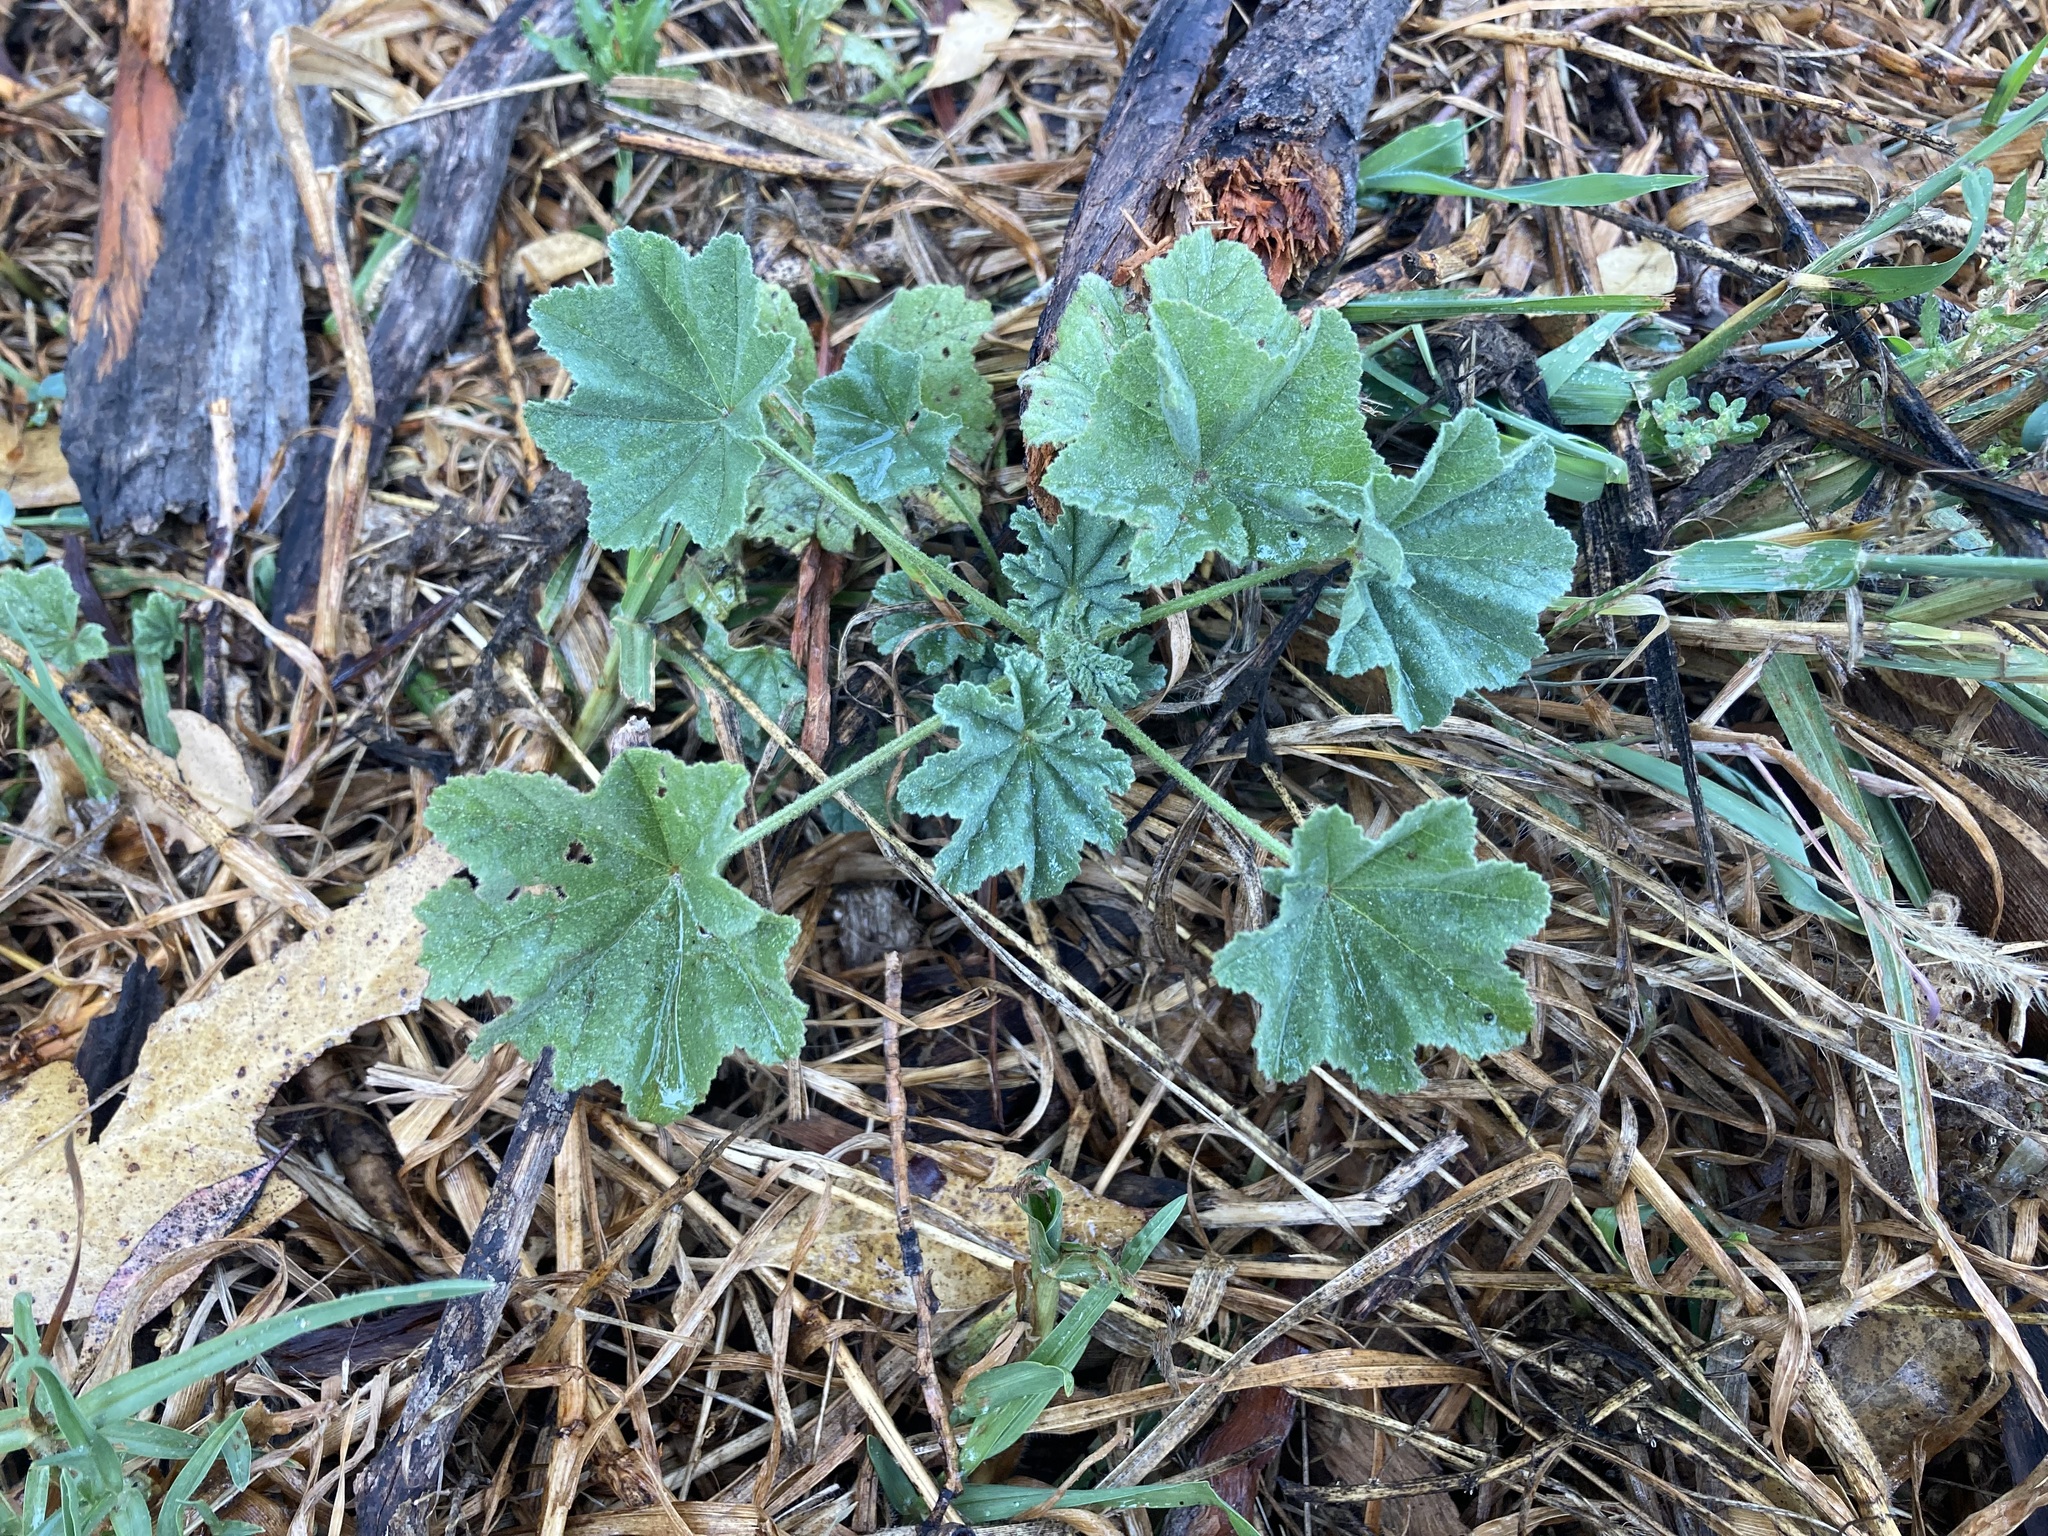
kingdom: Plantae
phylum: Tracheophyta
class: Magnoliopsida
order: Malvales
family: Malvaceae
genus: Malva
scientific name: Malva parviflora
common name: Least mallow
